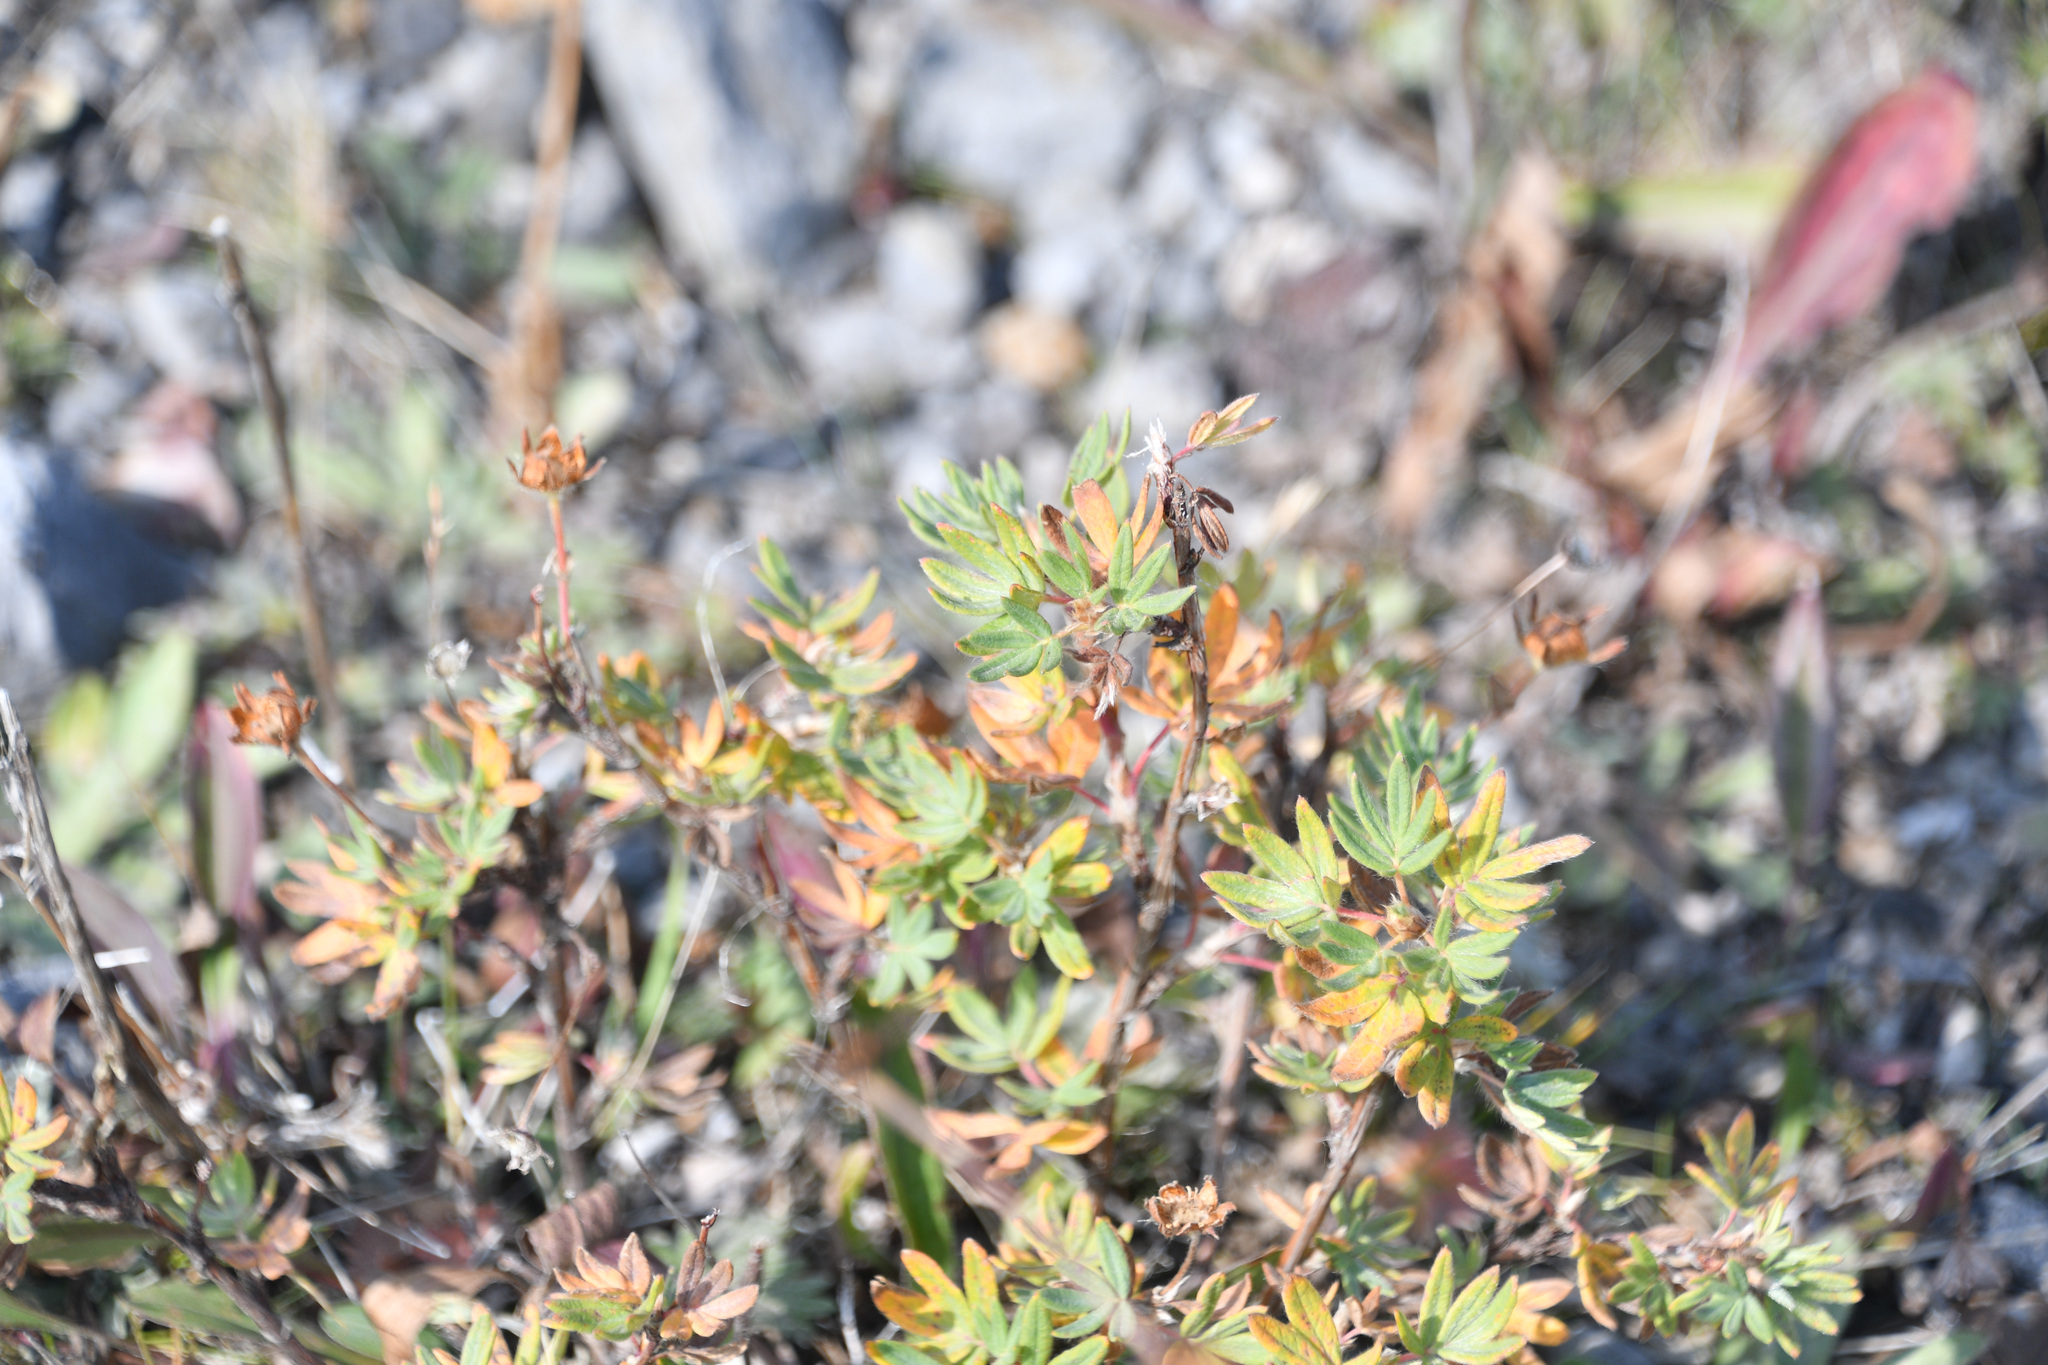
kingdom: Plantae
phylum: Tracheophyta
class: Magnoliopsida
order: Rosales
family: Rosaceae
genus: Dasiphora
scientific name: Dasiphora fruticosa
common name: Shrubby cinquefoil
